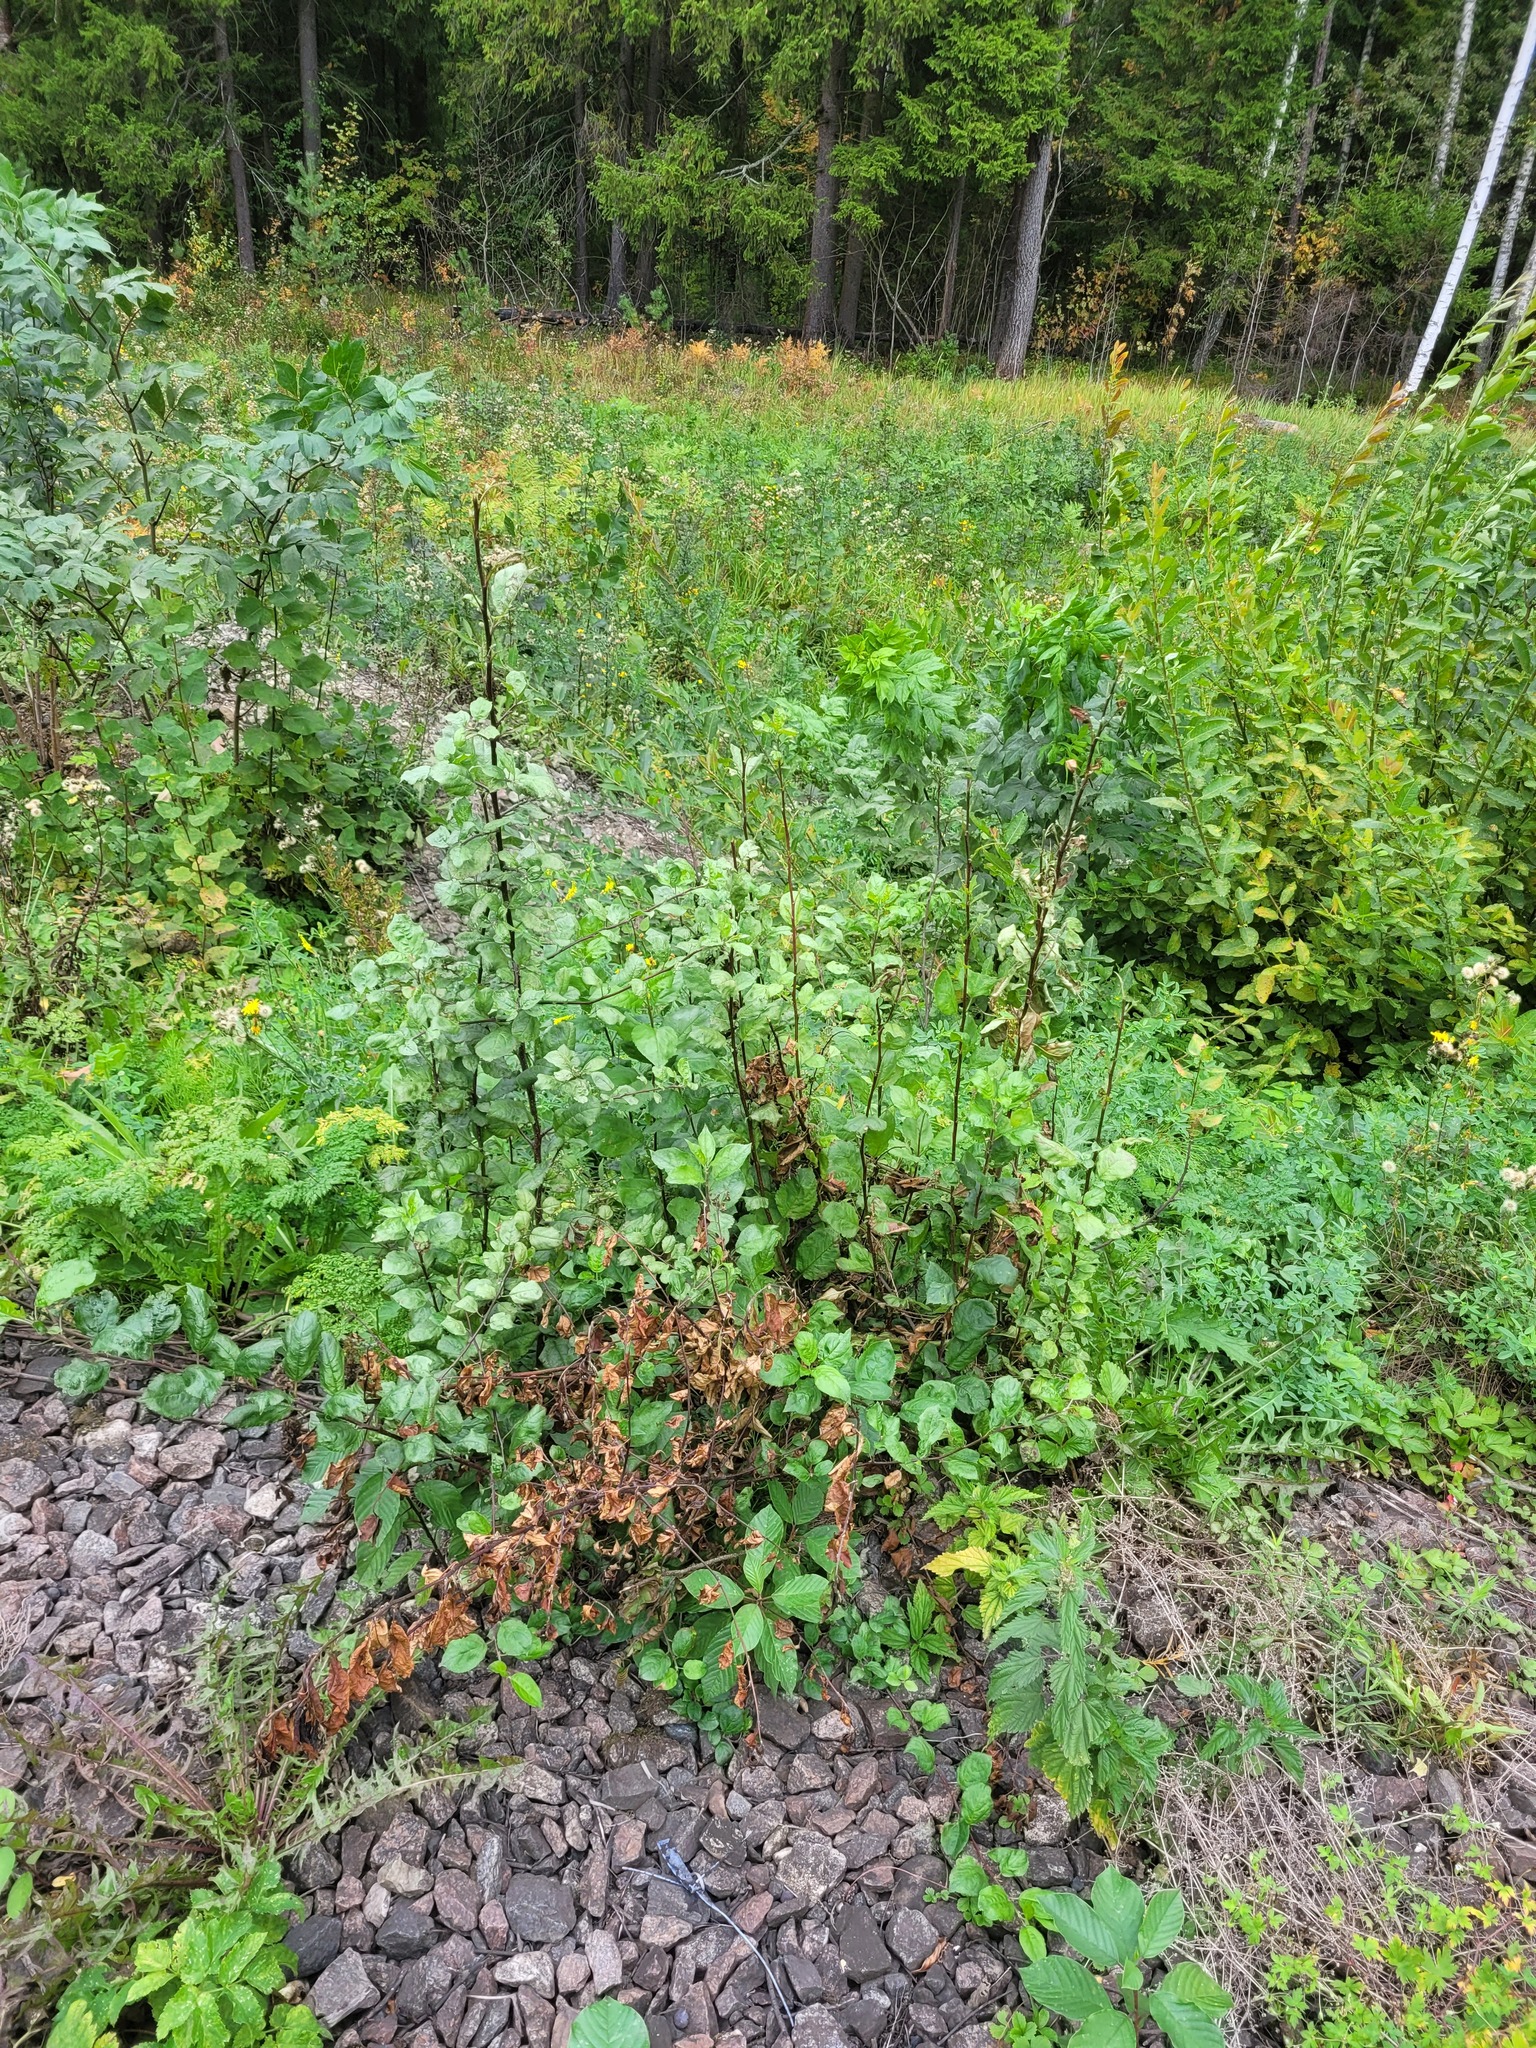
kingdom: Plantae
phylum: Tracheophyta
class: Magnoliopsida
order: Rosales
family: Rosaceae
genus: Malus
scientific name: Malus domestica
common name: Apple
